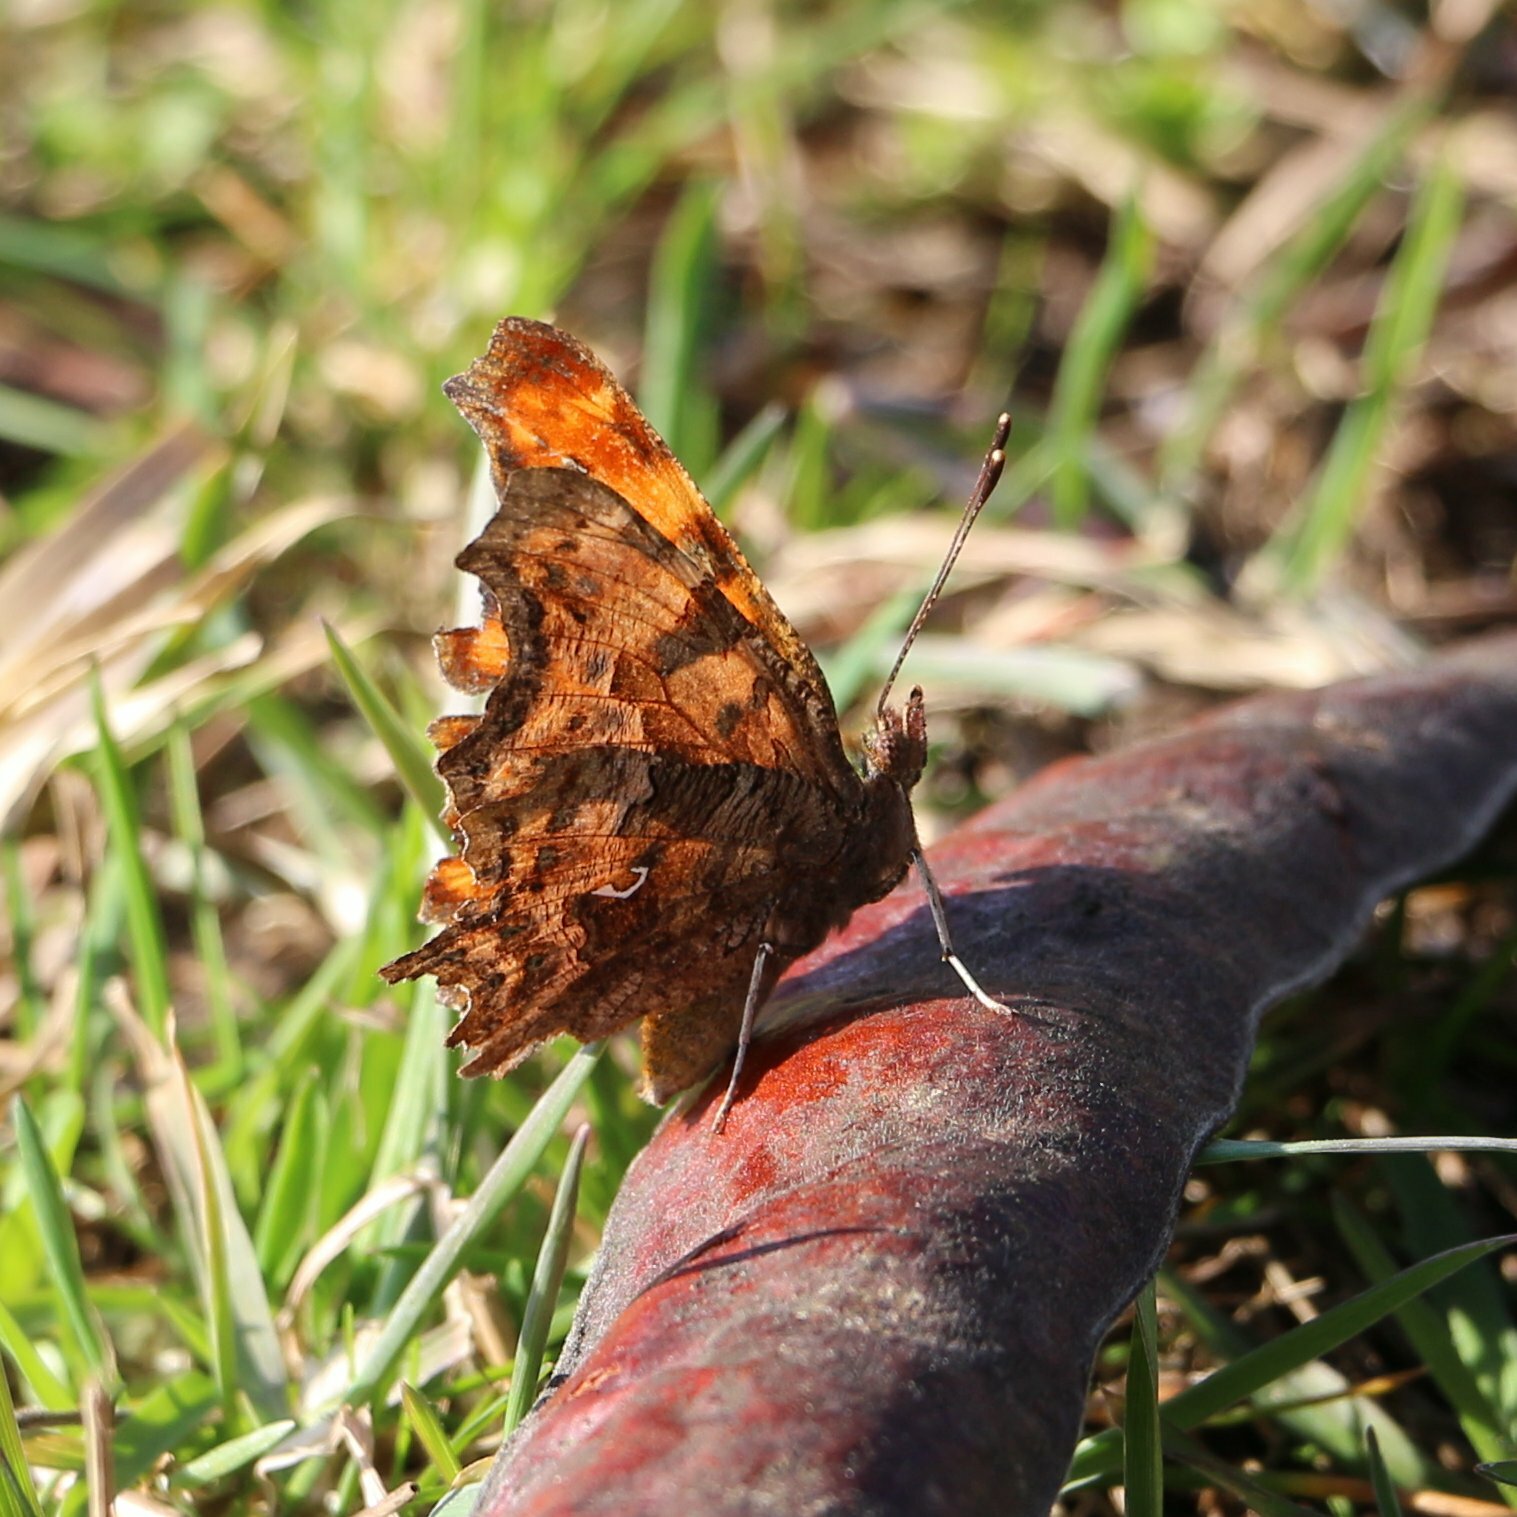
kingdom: Animalia
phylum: Arthropoda
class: Insecta
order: Lepidoptera
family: Nymphalidae
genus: Polygonia
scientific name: Polygonia c-album
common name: Comma
